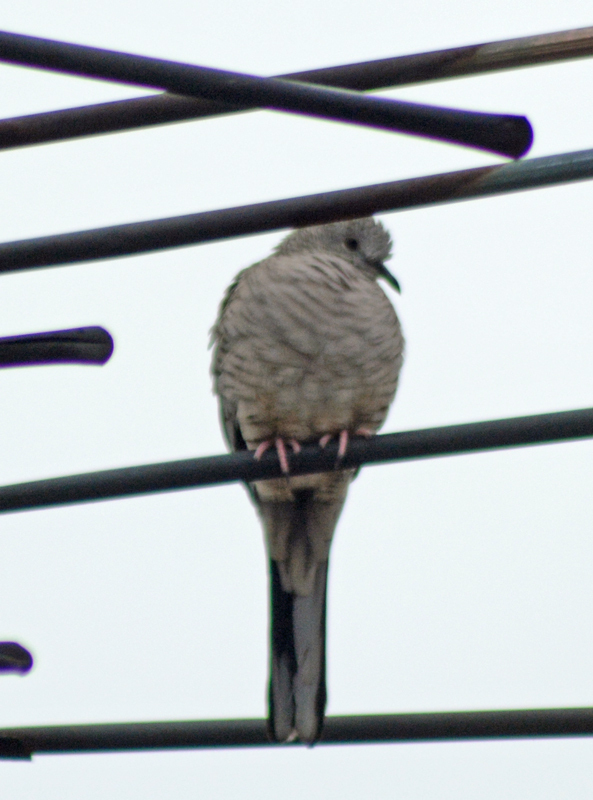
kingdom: Animalia
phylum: Chordata
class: Aves
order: Columbiformes
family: Columbidae
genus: Columbina
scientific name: Columbina inca
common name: Inca dove
